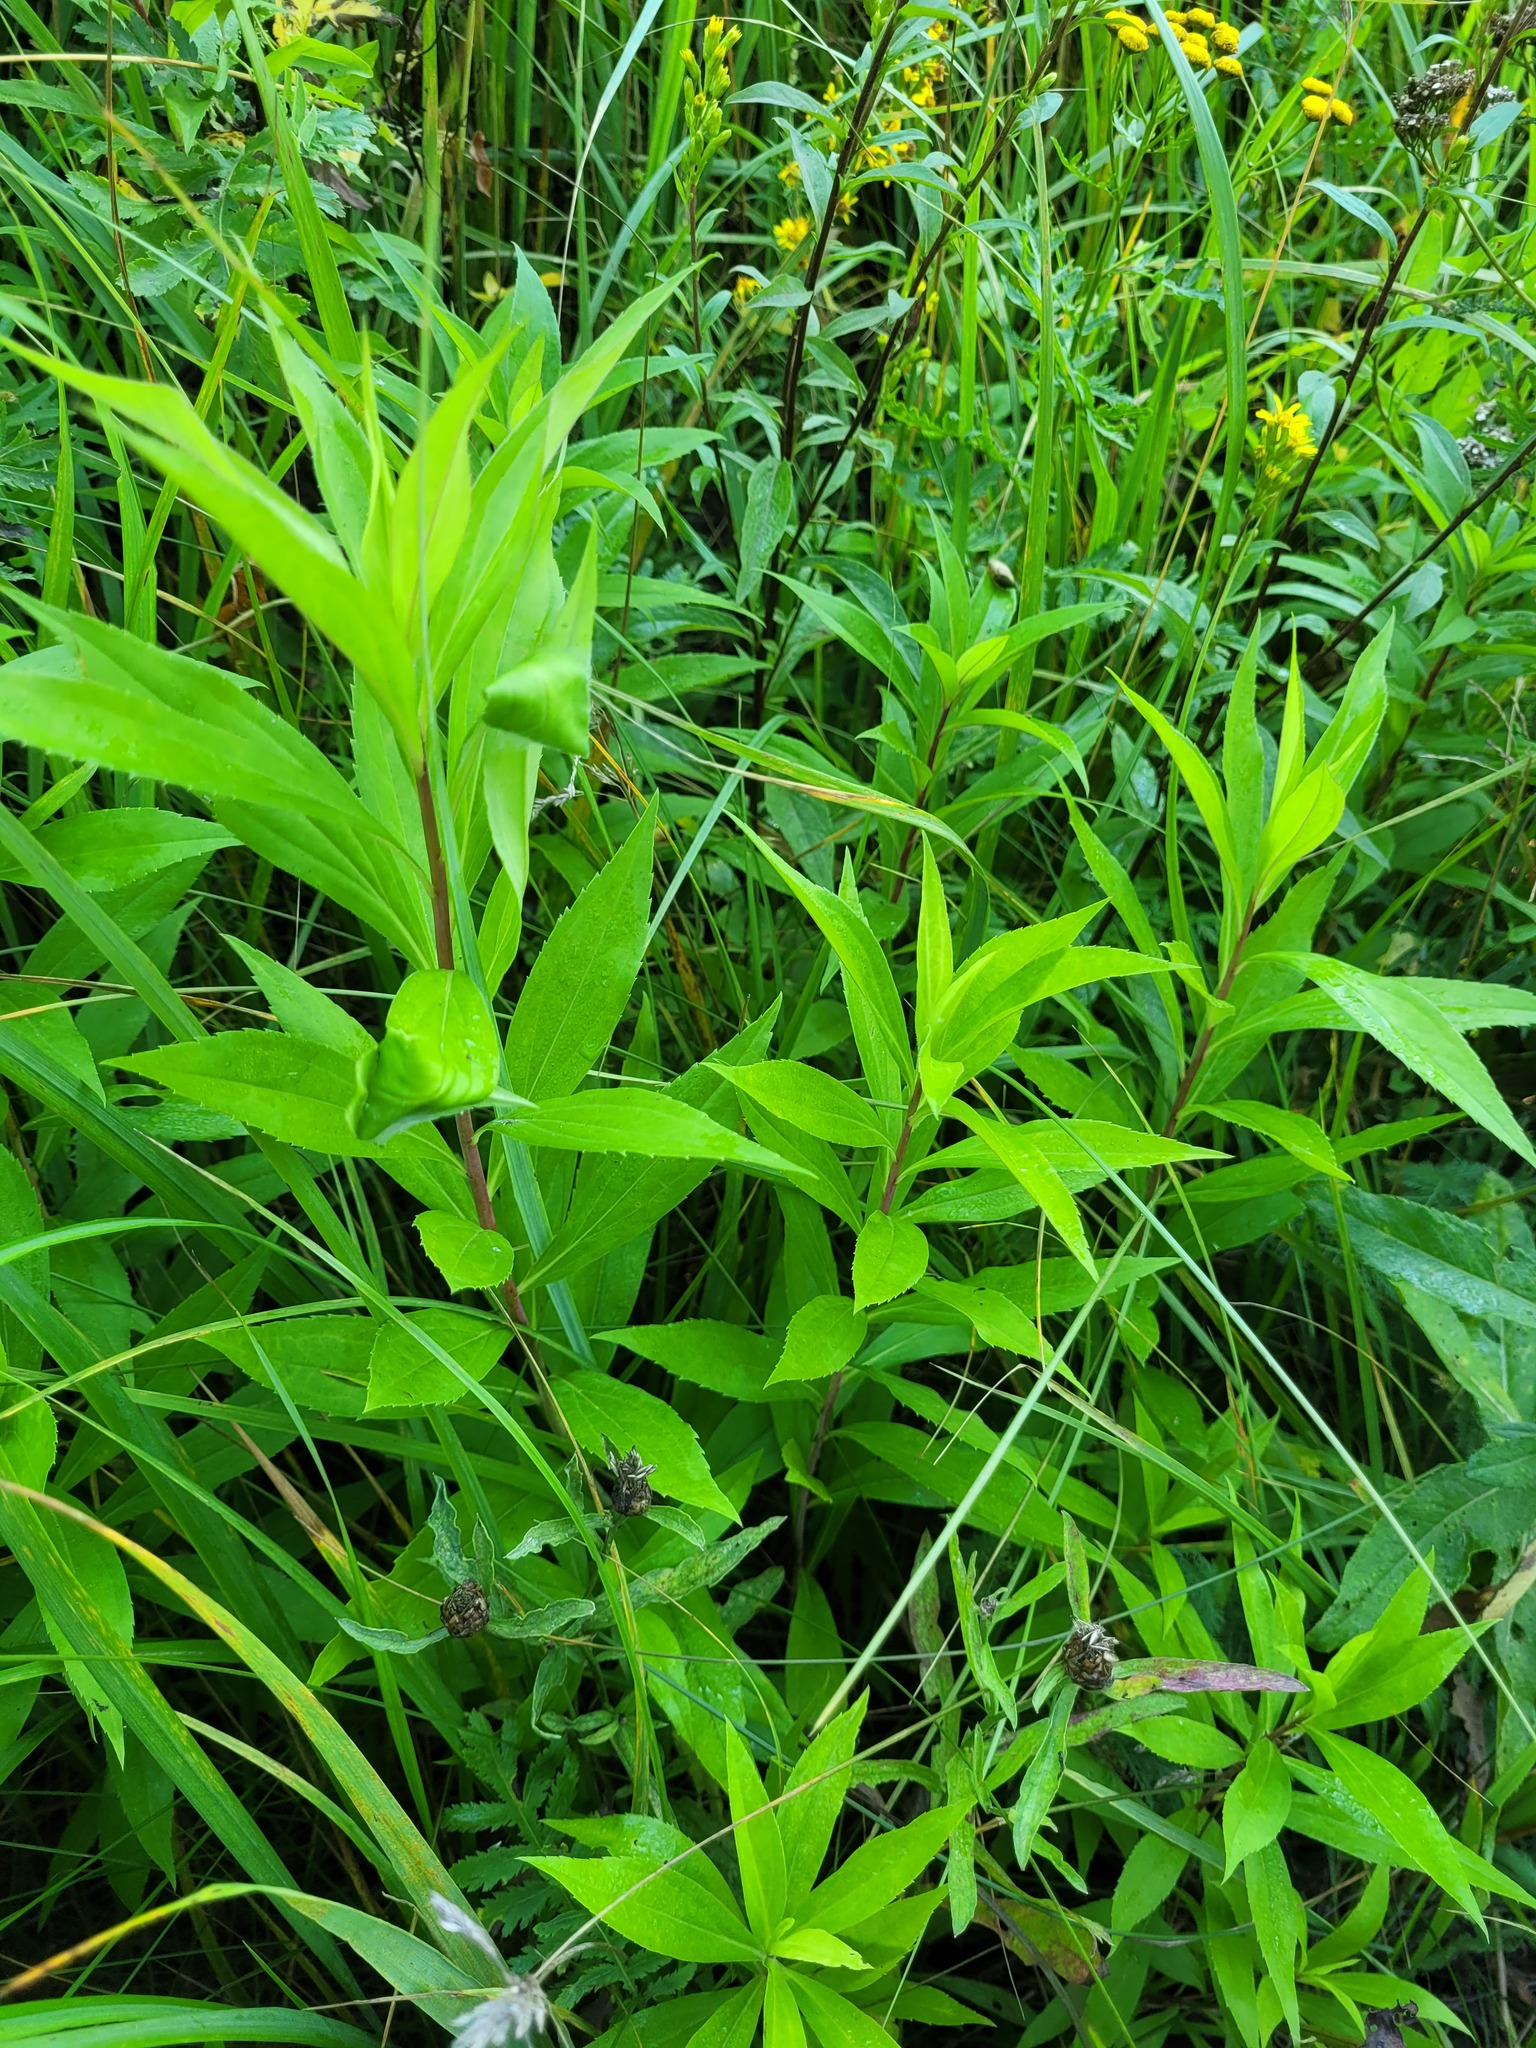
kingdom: Plantae
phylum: Tracheophyta
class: Magnoliopsida
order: Asterales
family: Asteraceae
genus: Solidago
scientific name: Solidago gigantea
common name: Giant goldenrod
